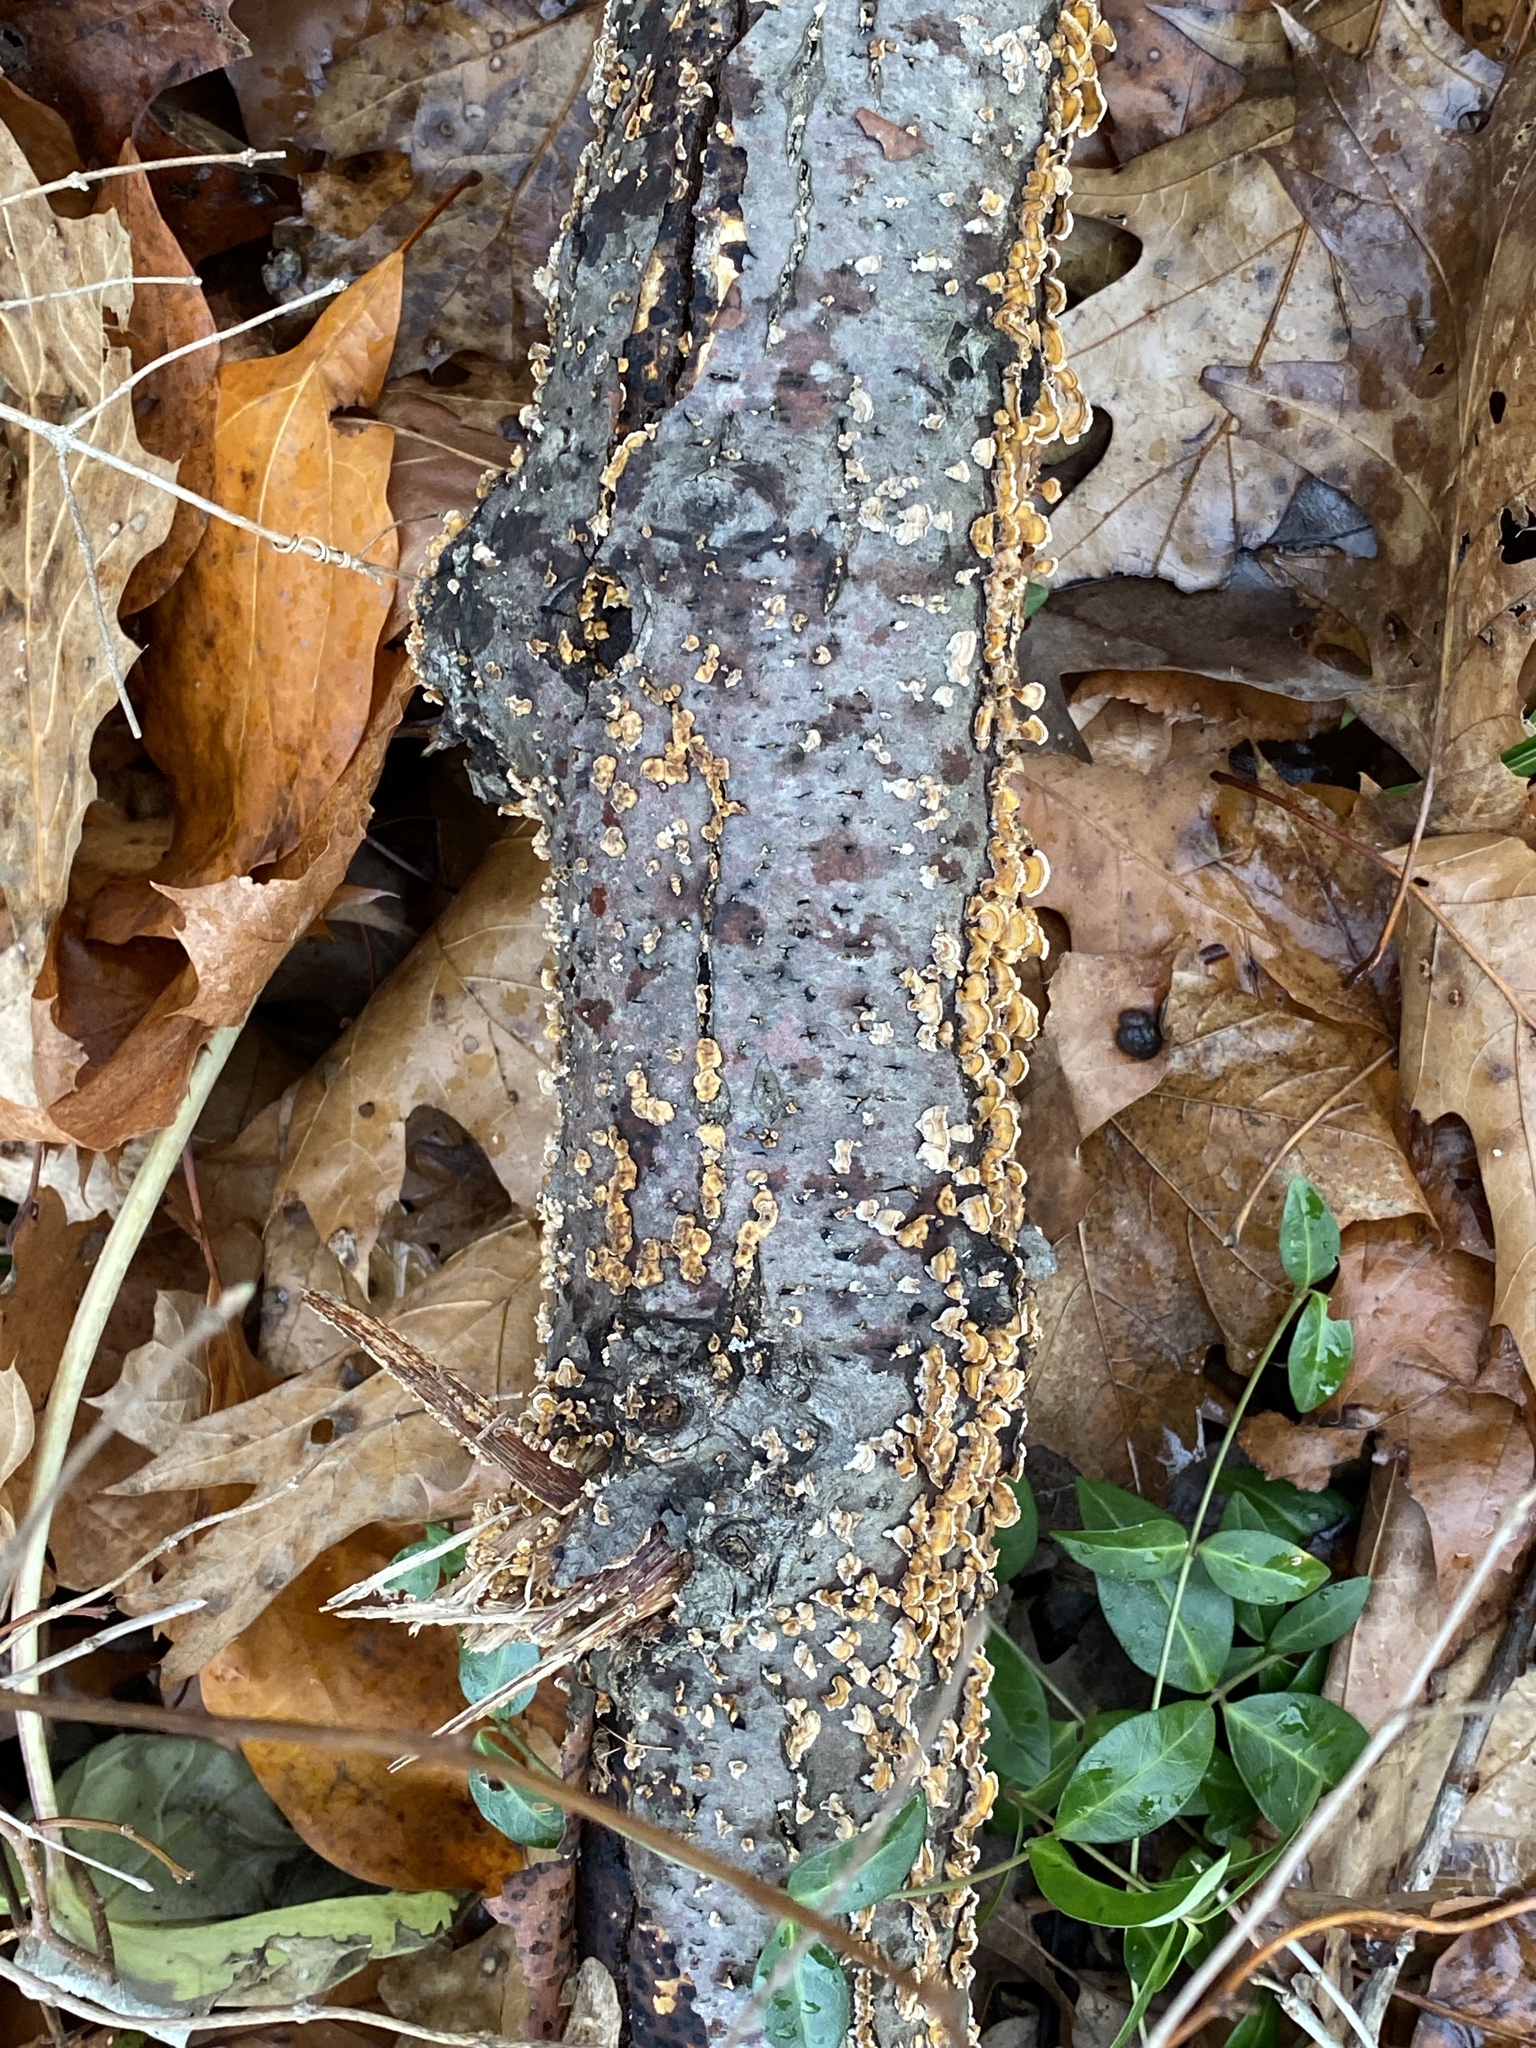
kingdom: Fungi
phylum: Basidiomycota
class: Agaricomycetes
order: Russulales
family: Stereaceae
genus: Stereum
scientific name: Stereum complicatum
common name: Crowded parchment
